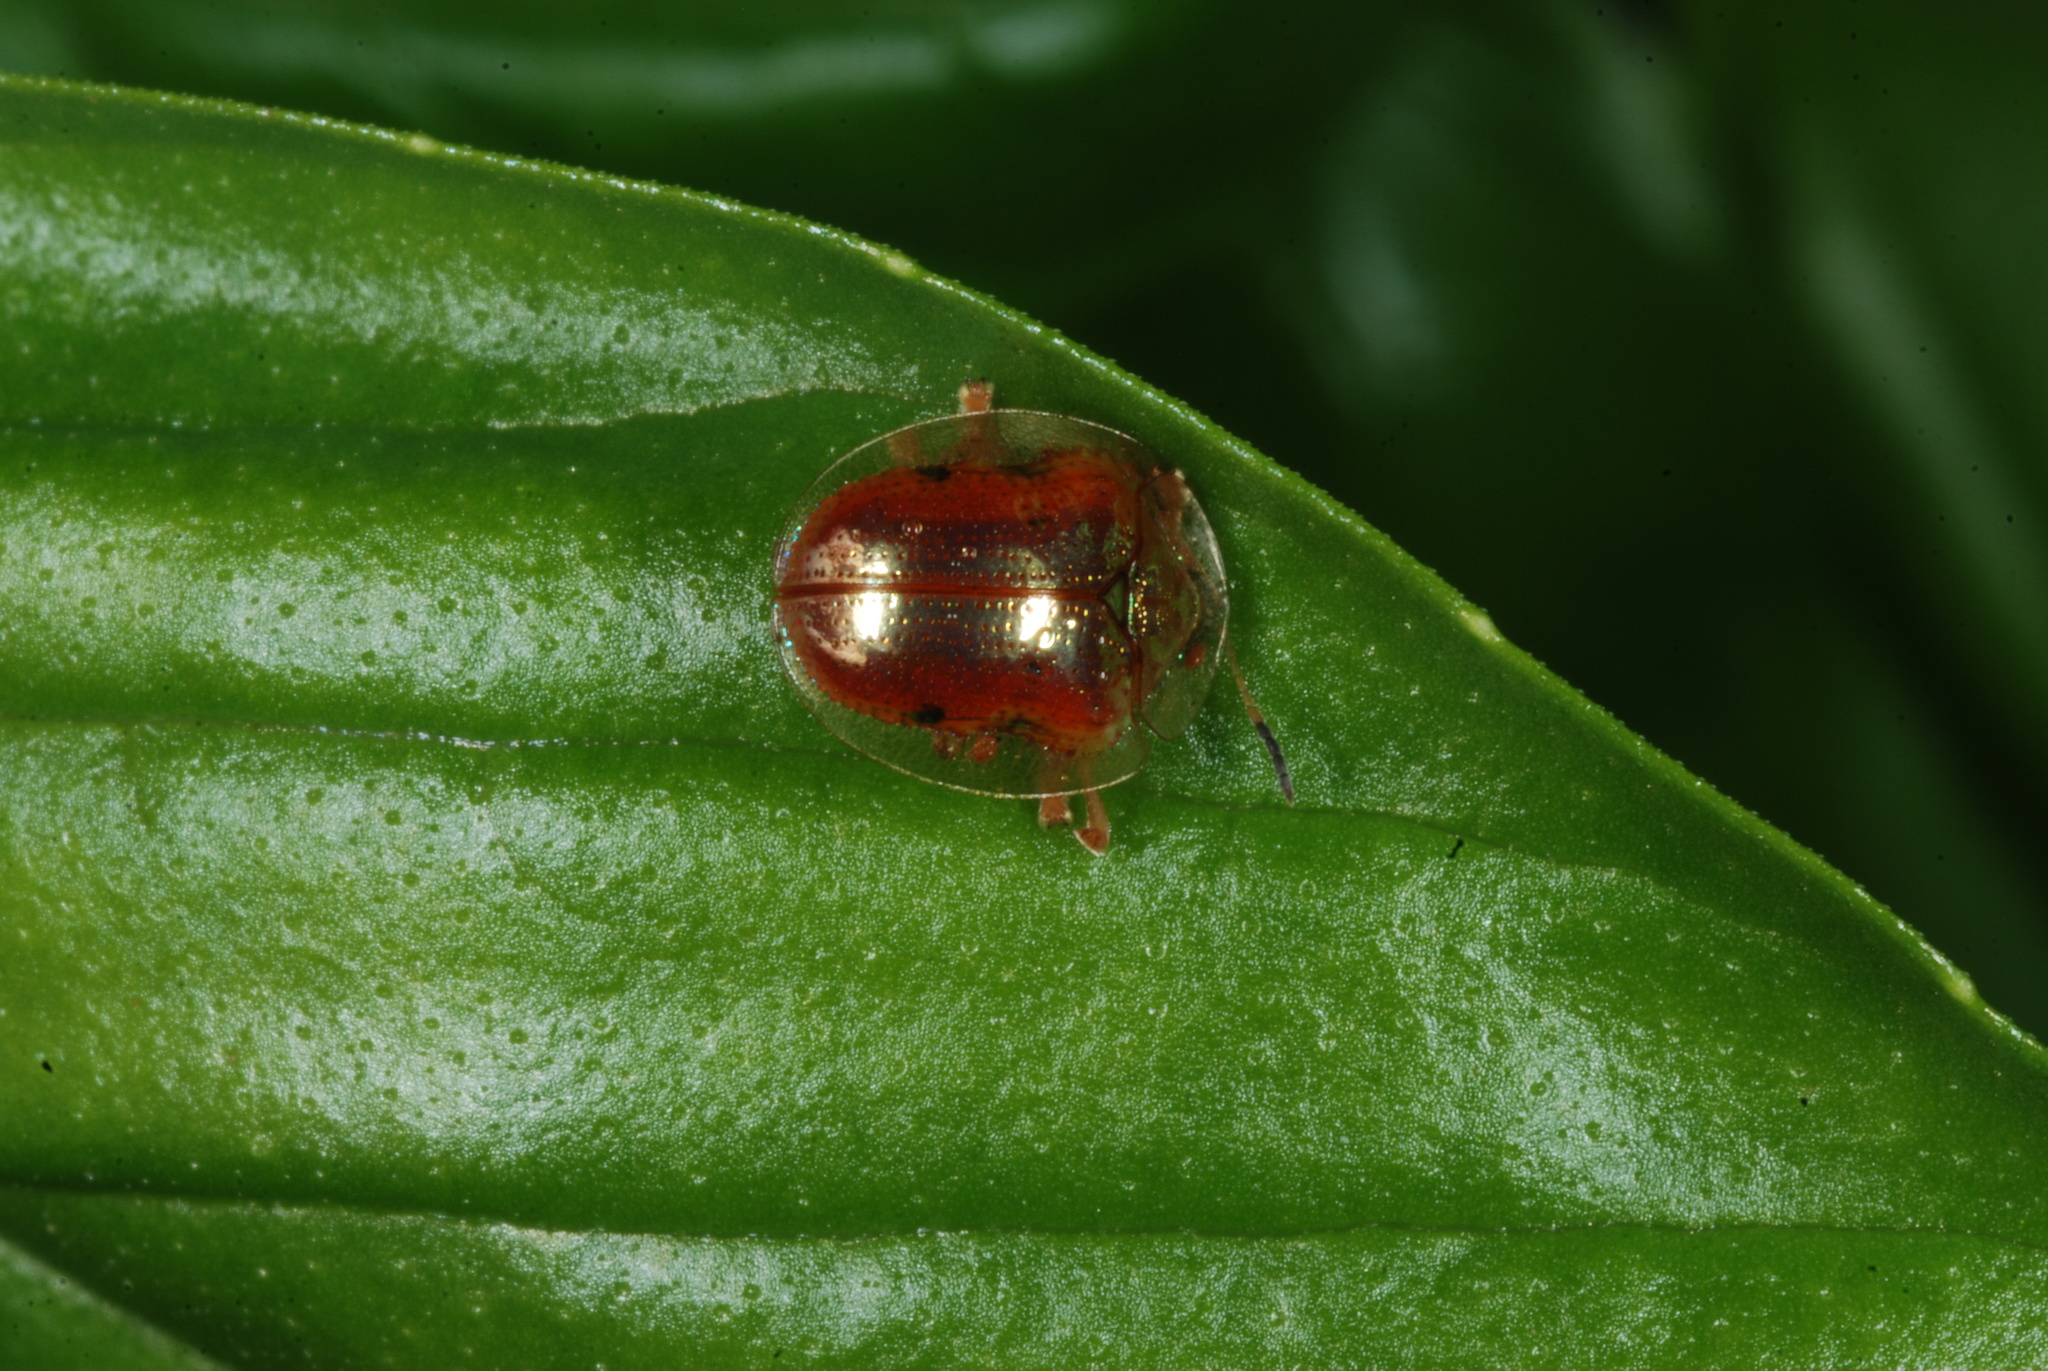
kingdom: Animalia
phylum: Arthropoda
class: Insecta
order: Coleoptera
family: Chrysomelidae
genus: Charidotella
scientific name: Charidotella sexpunctata
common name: Golden tortoise beetle
